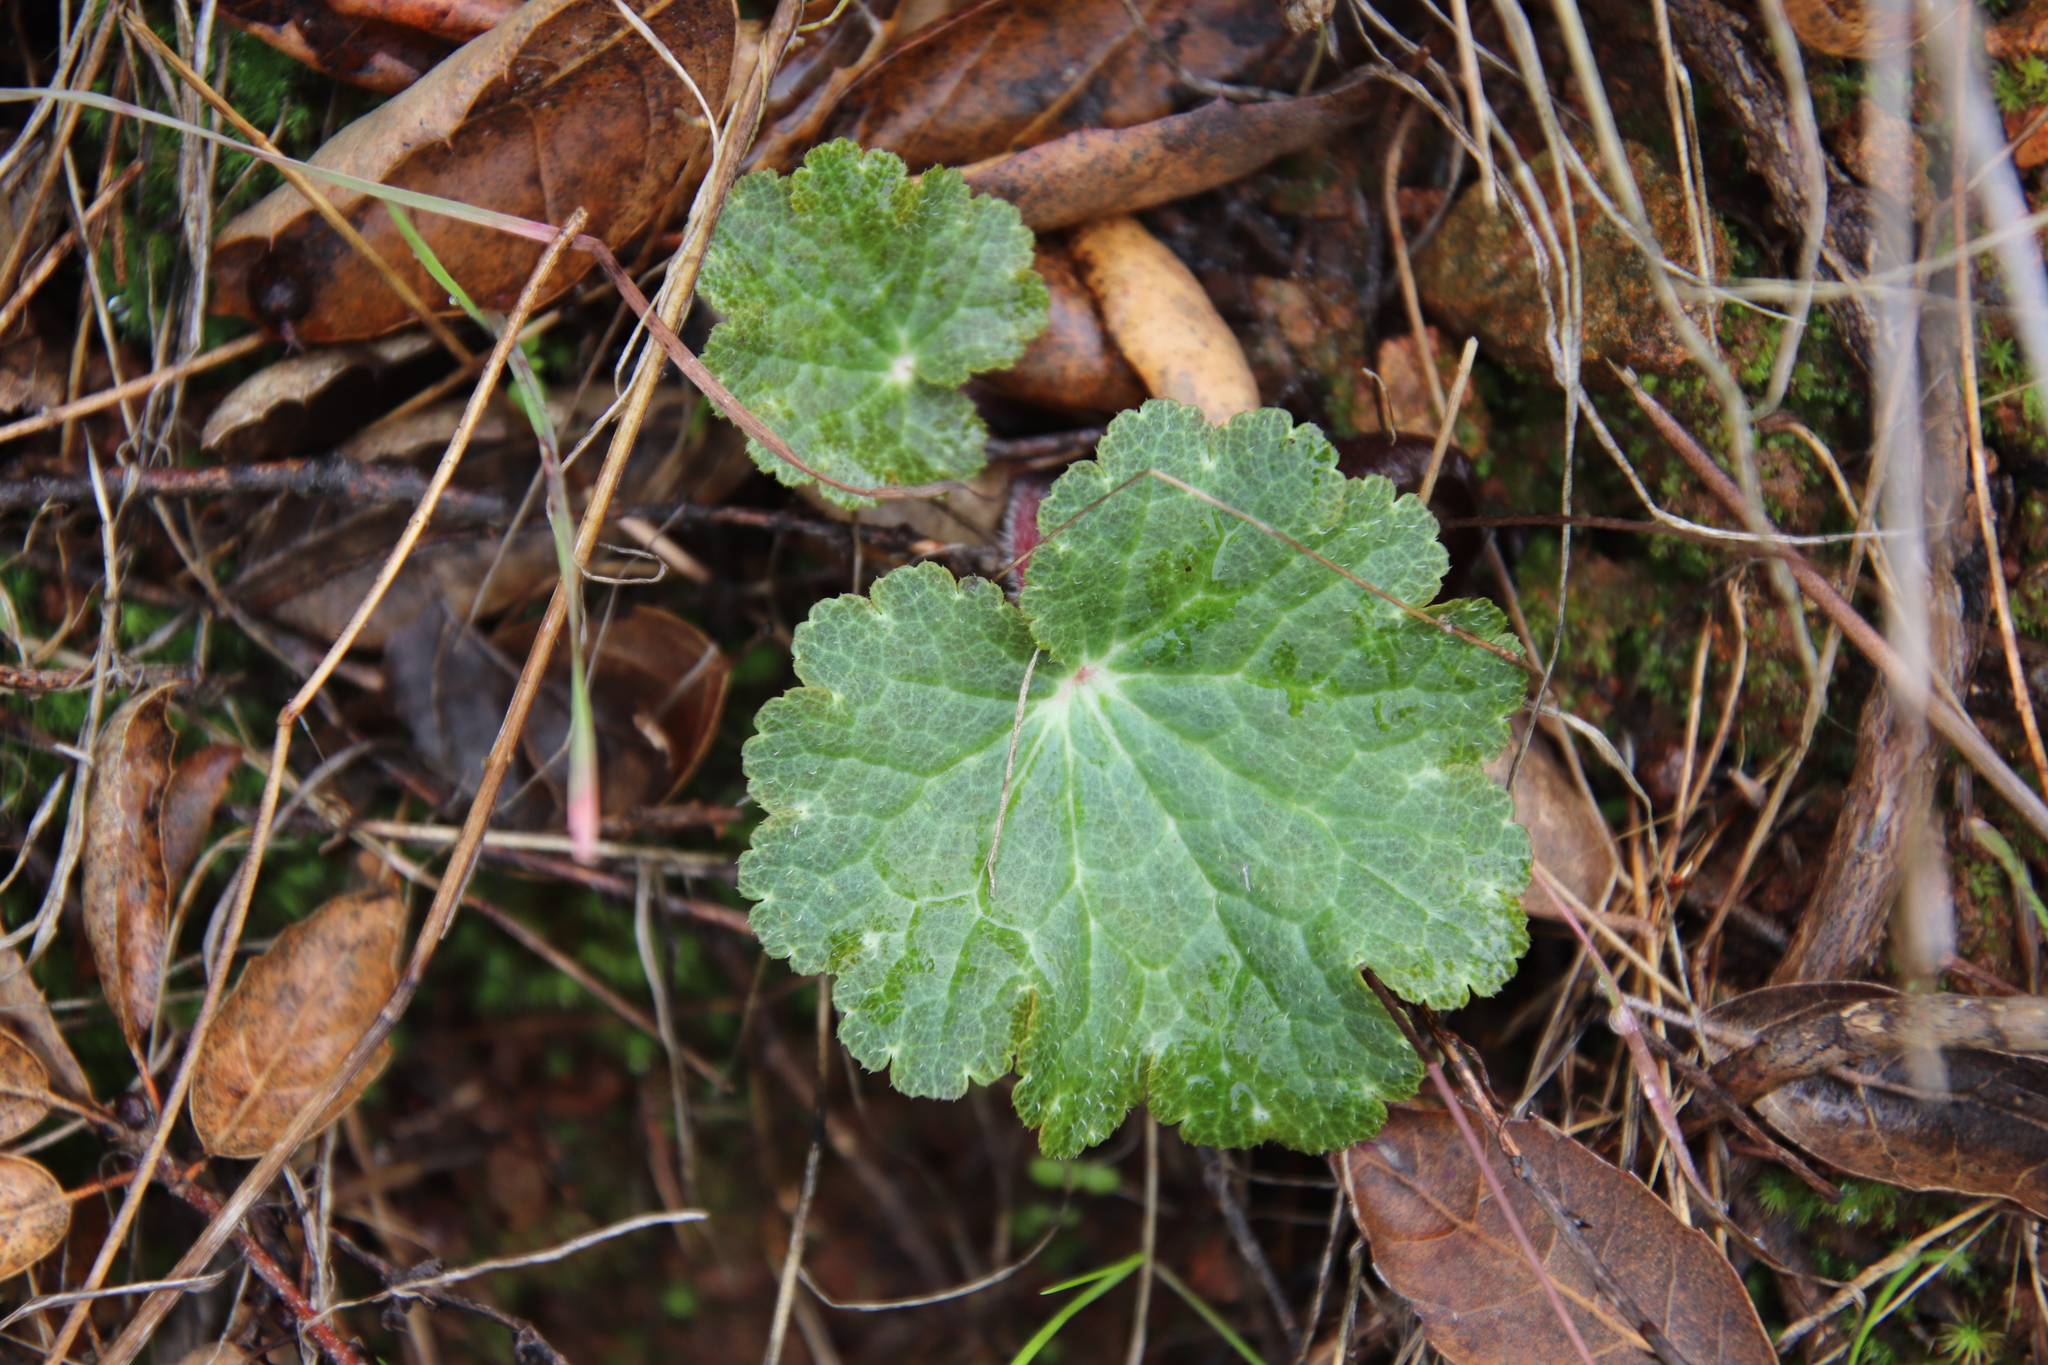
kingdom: Plantae
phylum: Tracheophyta
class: Magnoliopsida
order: Saxifragales
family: Saxifragaceae
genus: Jepsonia
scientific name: Jepsonia parryi
